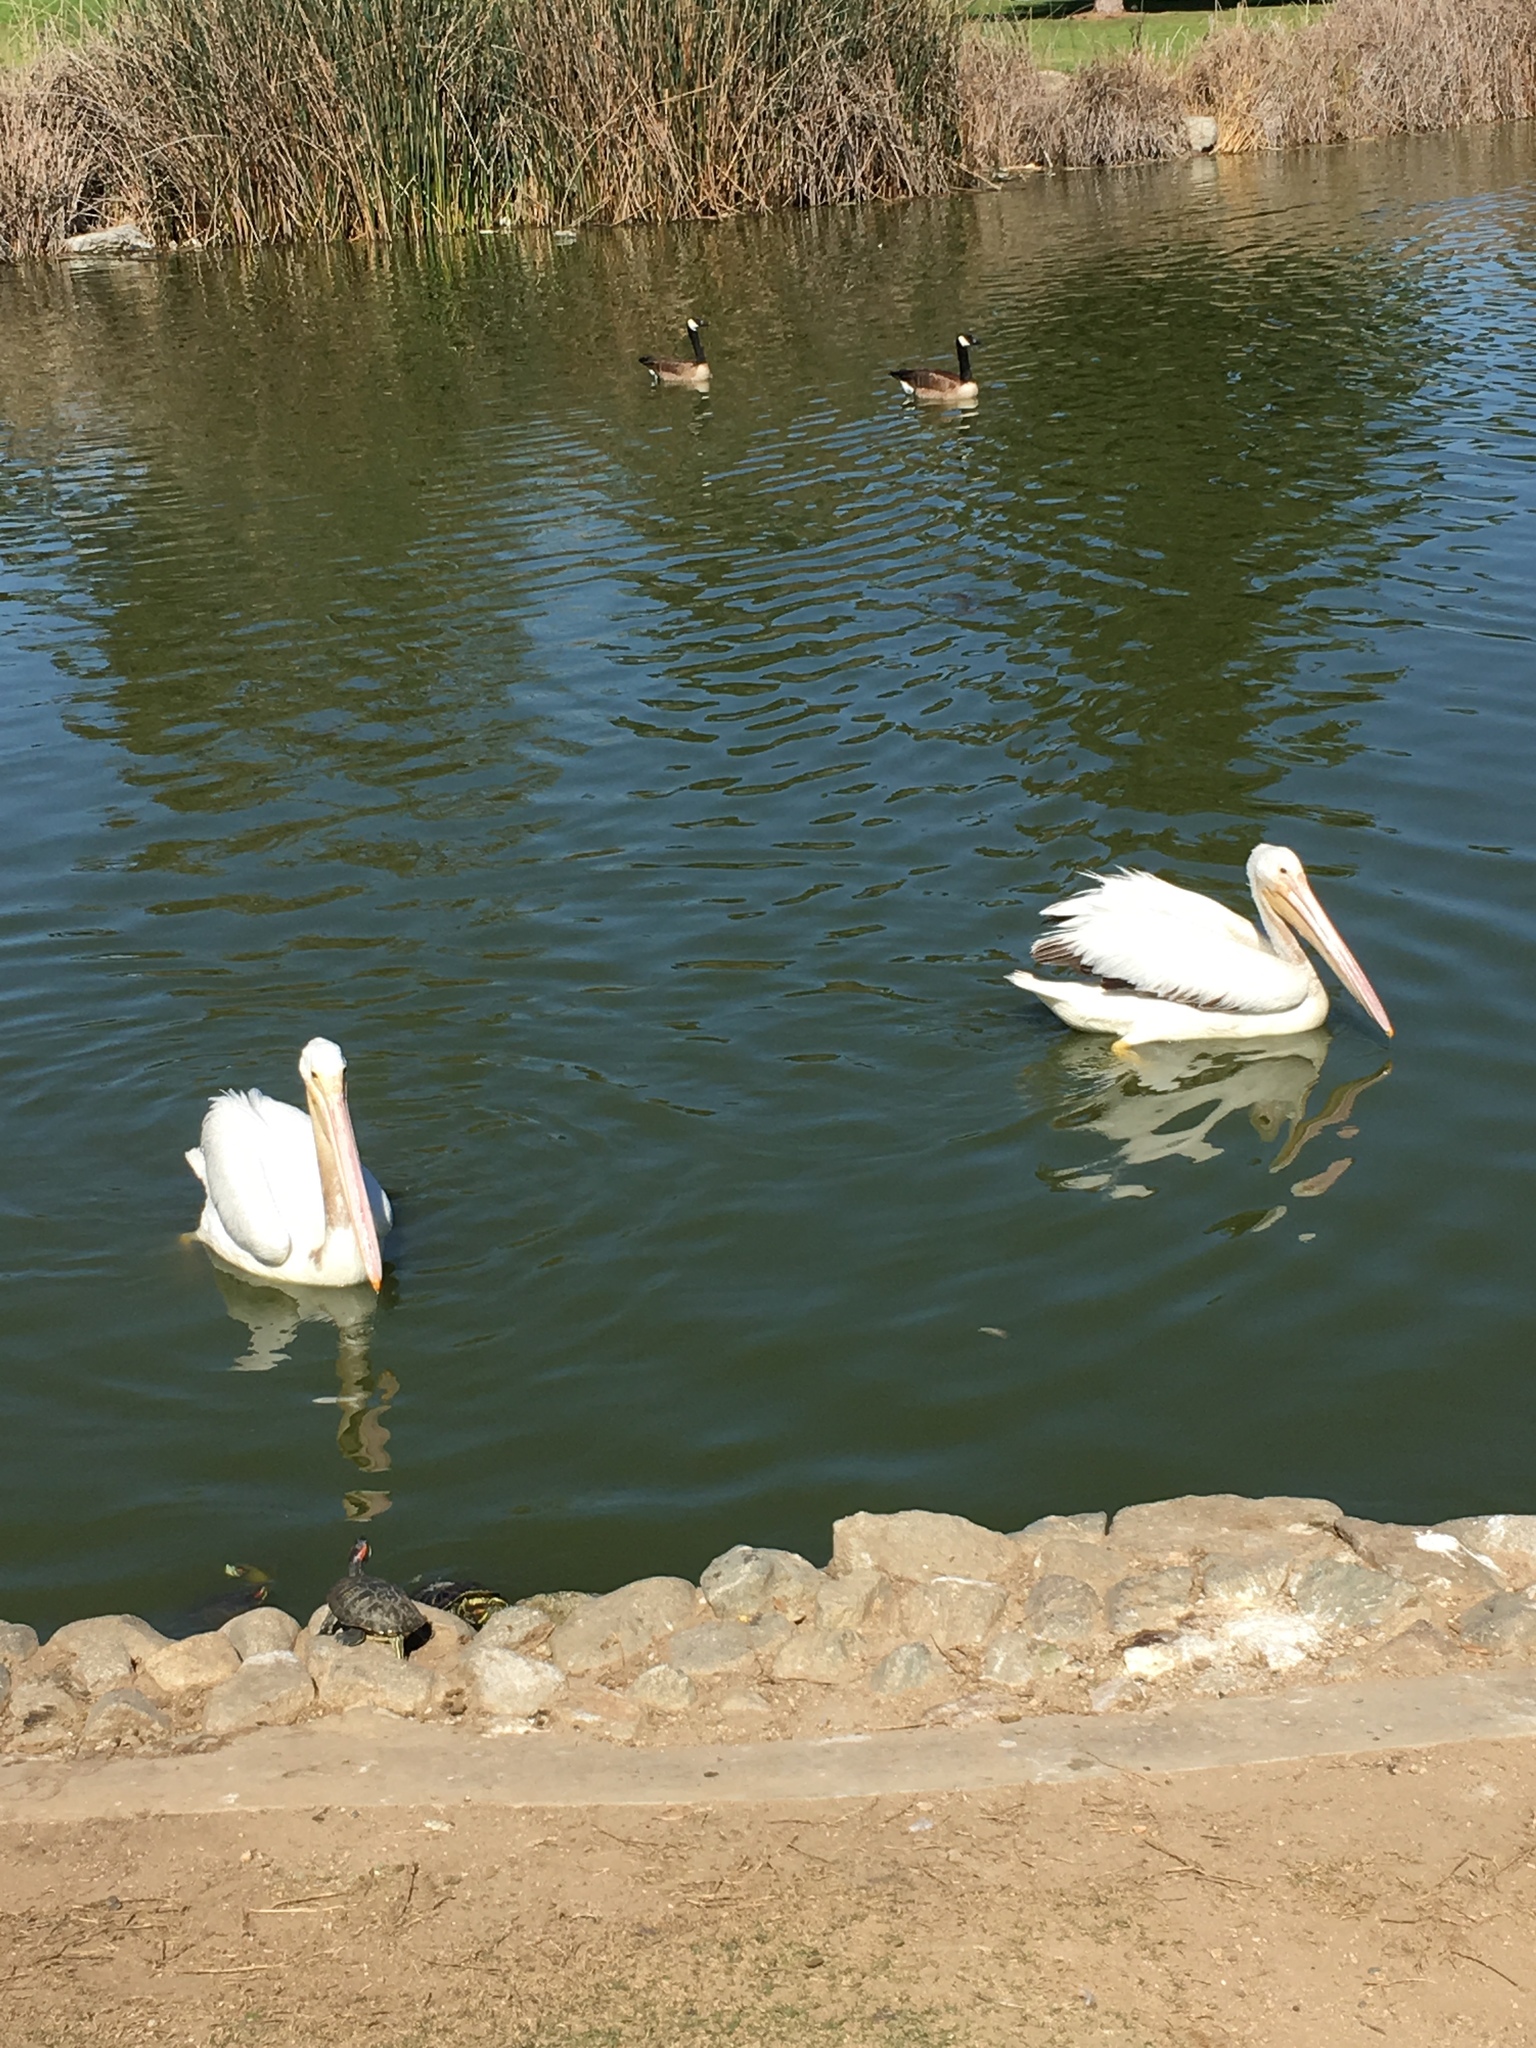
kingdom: Animalia
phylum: Chordata
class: Aves
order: Pelecaniformes
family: Pelecanidae
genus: Pelecanus
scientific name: Pelecanus erythrorhynchos
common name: American white pelican
